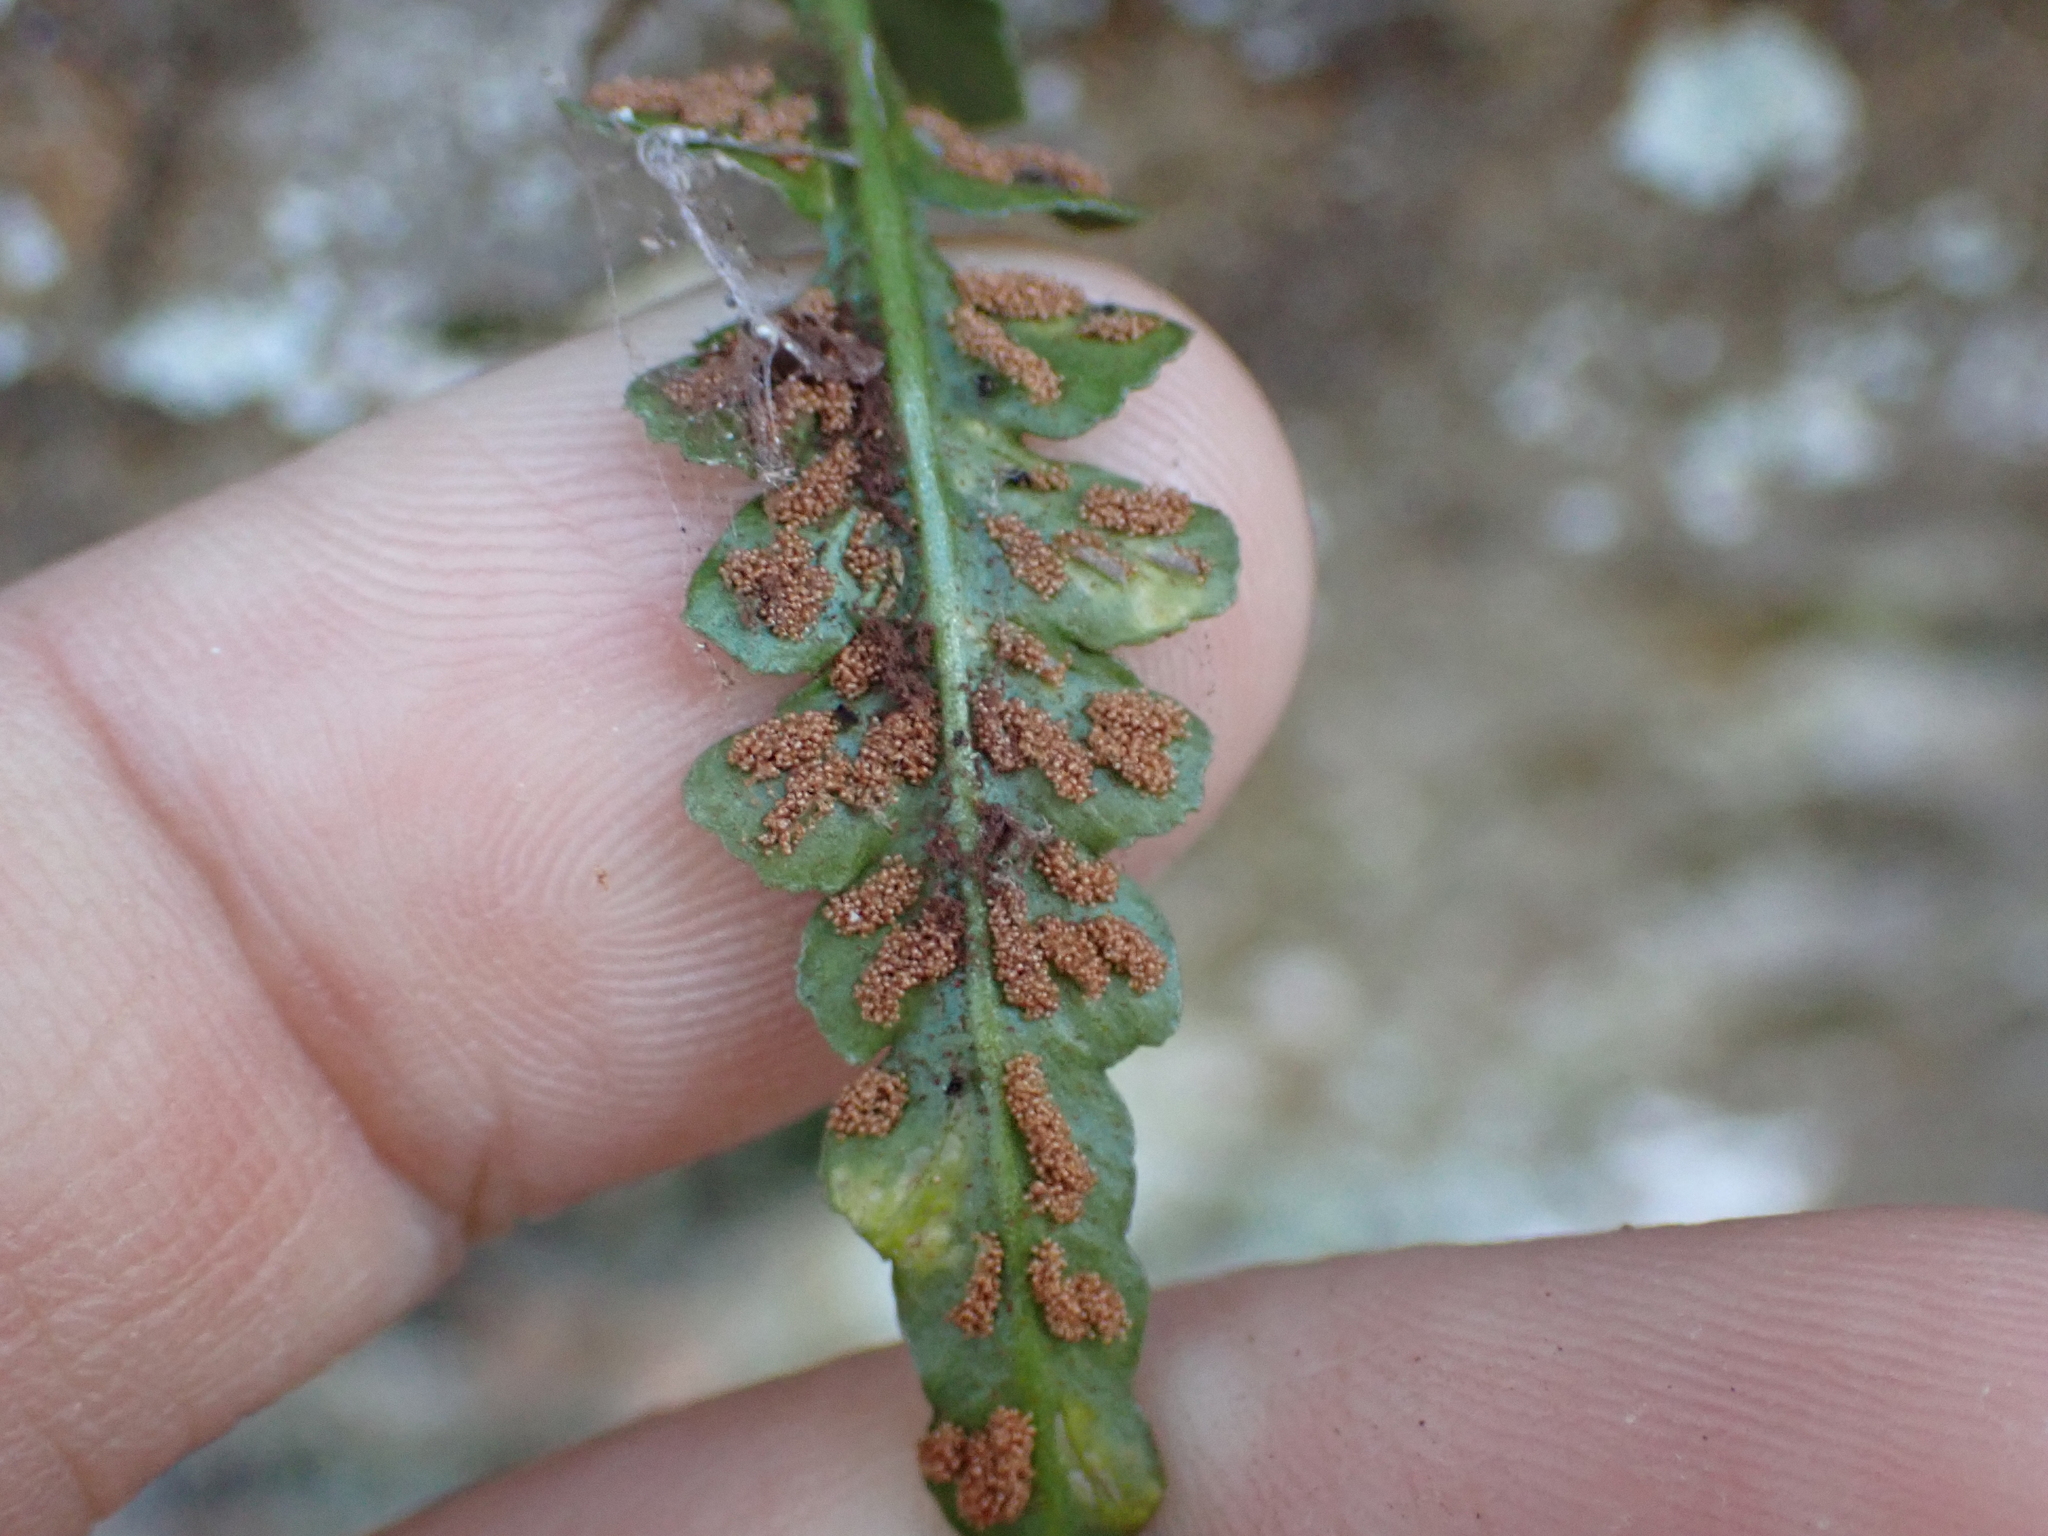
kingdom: Plantae
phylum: Tracheophyta
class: Polypodiopsida
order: Polypodiales
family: Aspleniaceae
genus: Asplenium
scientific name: Asplenium pinnatifidum
